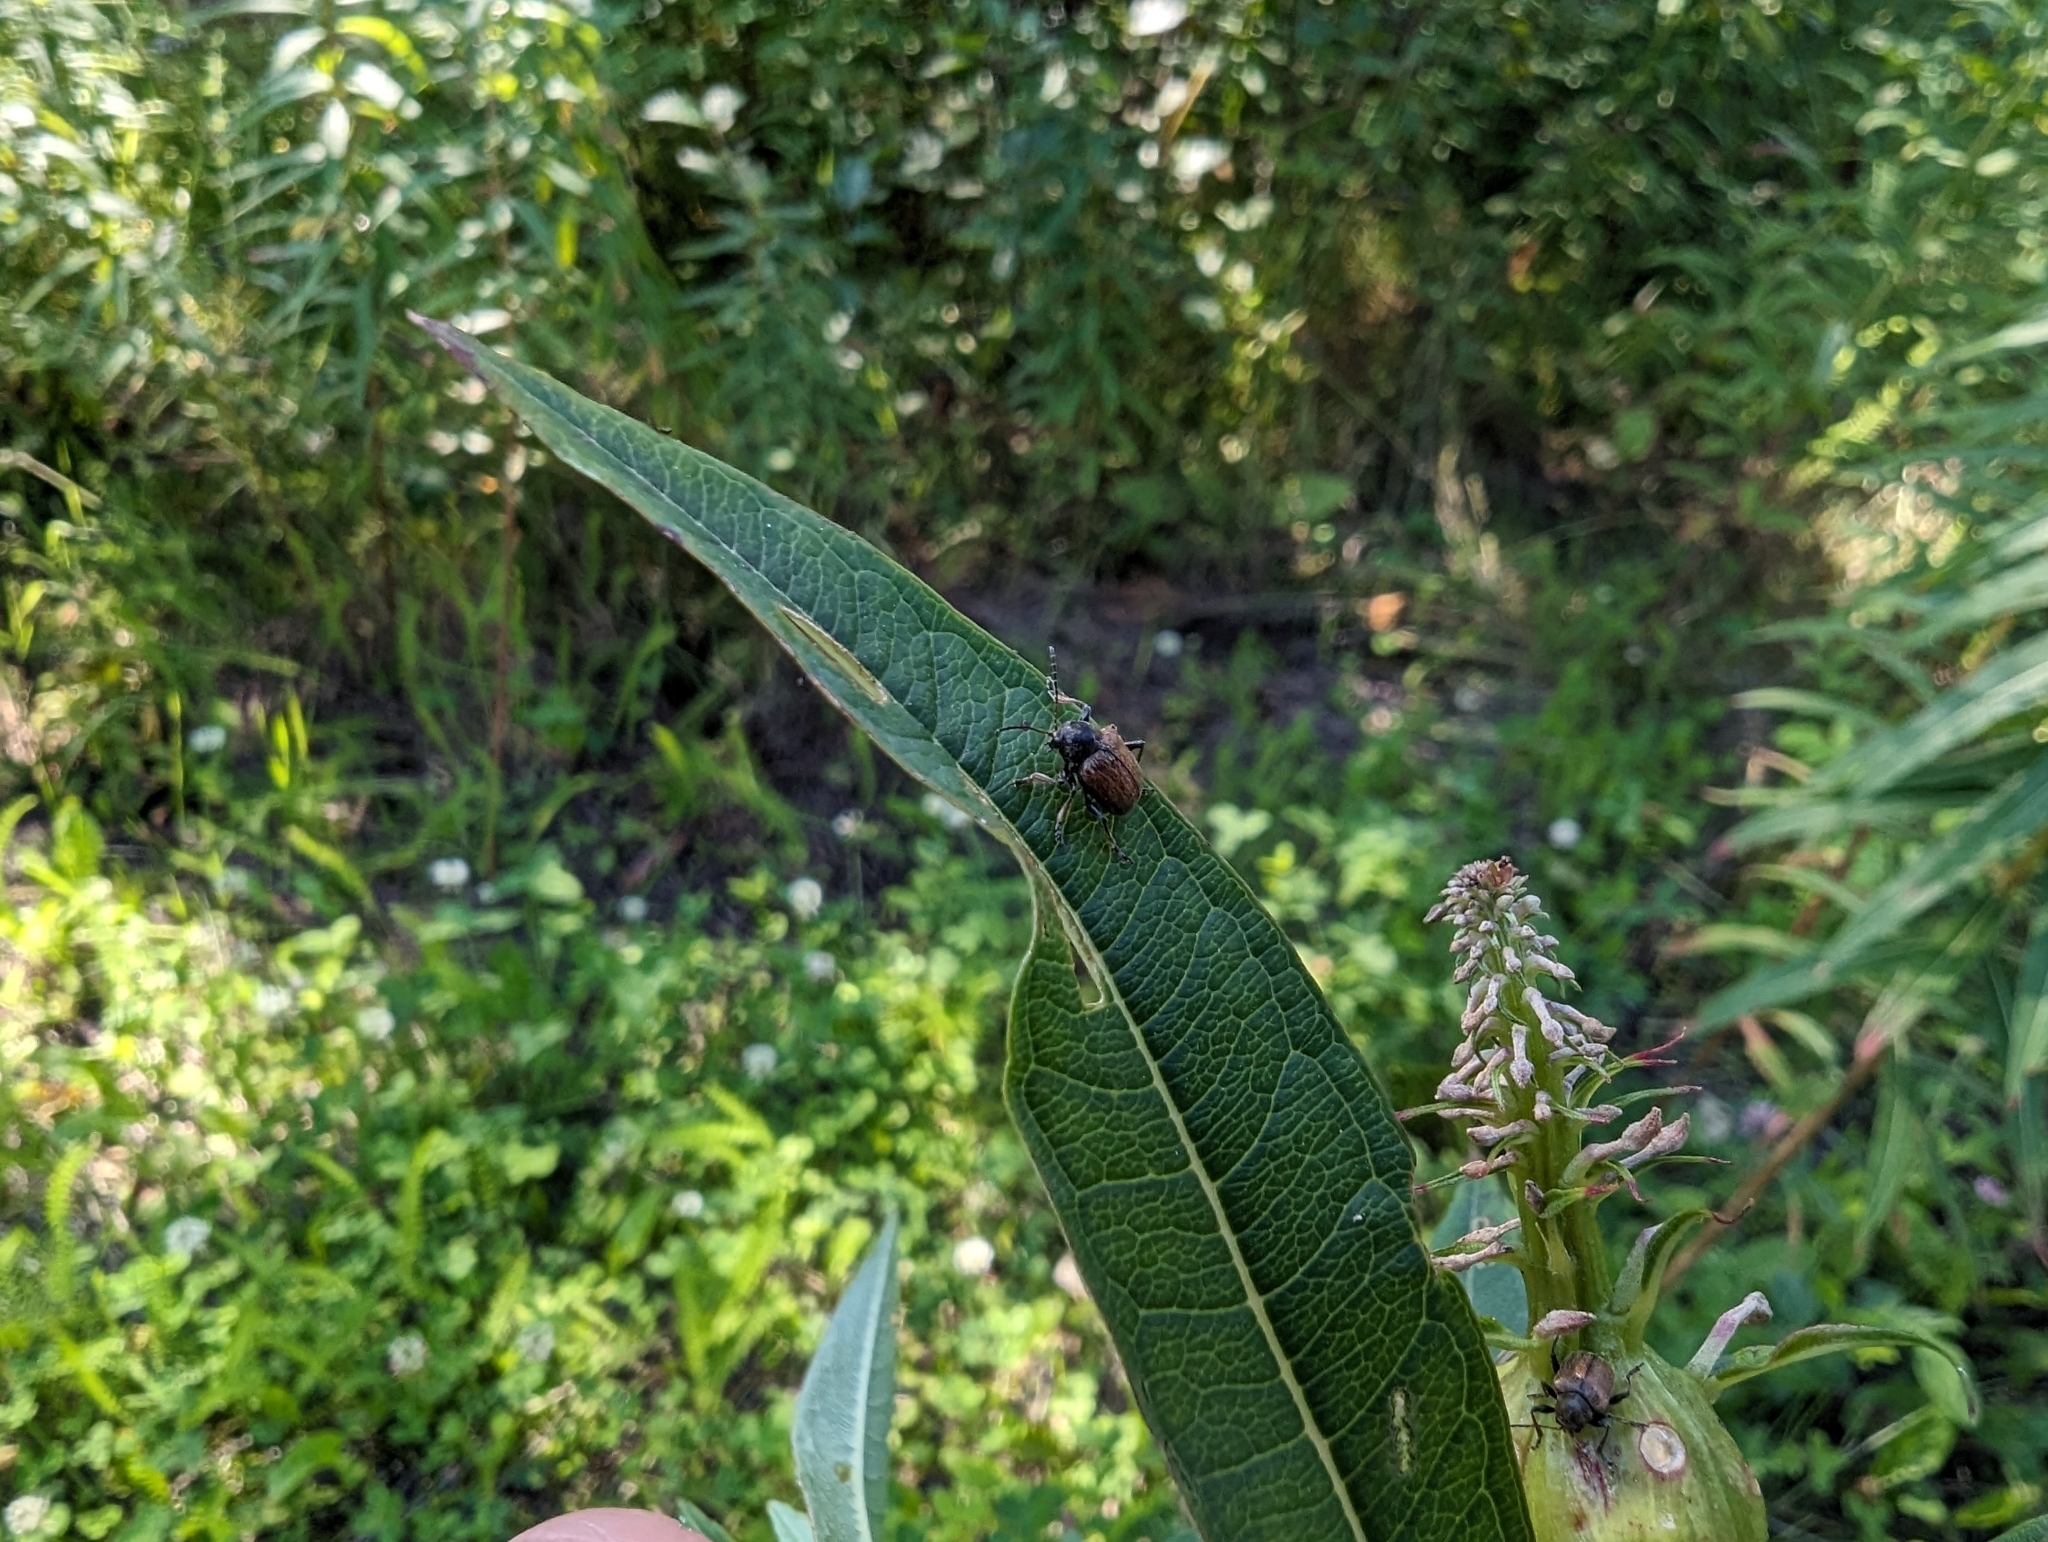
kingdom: Animalia
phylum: Arthropoda
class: Insecta
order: Coleoptera
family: Chrysomelidae
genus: Bromius
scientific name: Bromius obscurus
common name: Western grape rootworm
